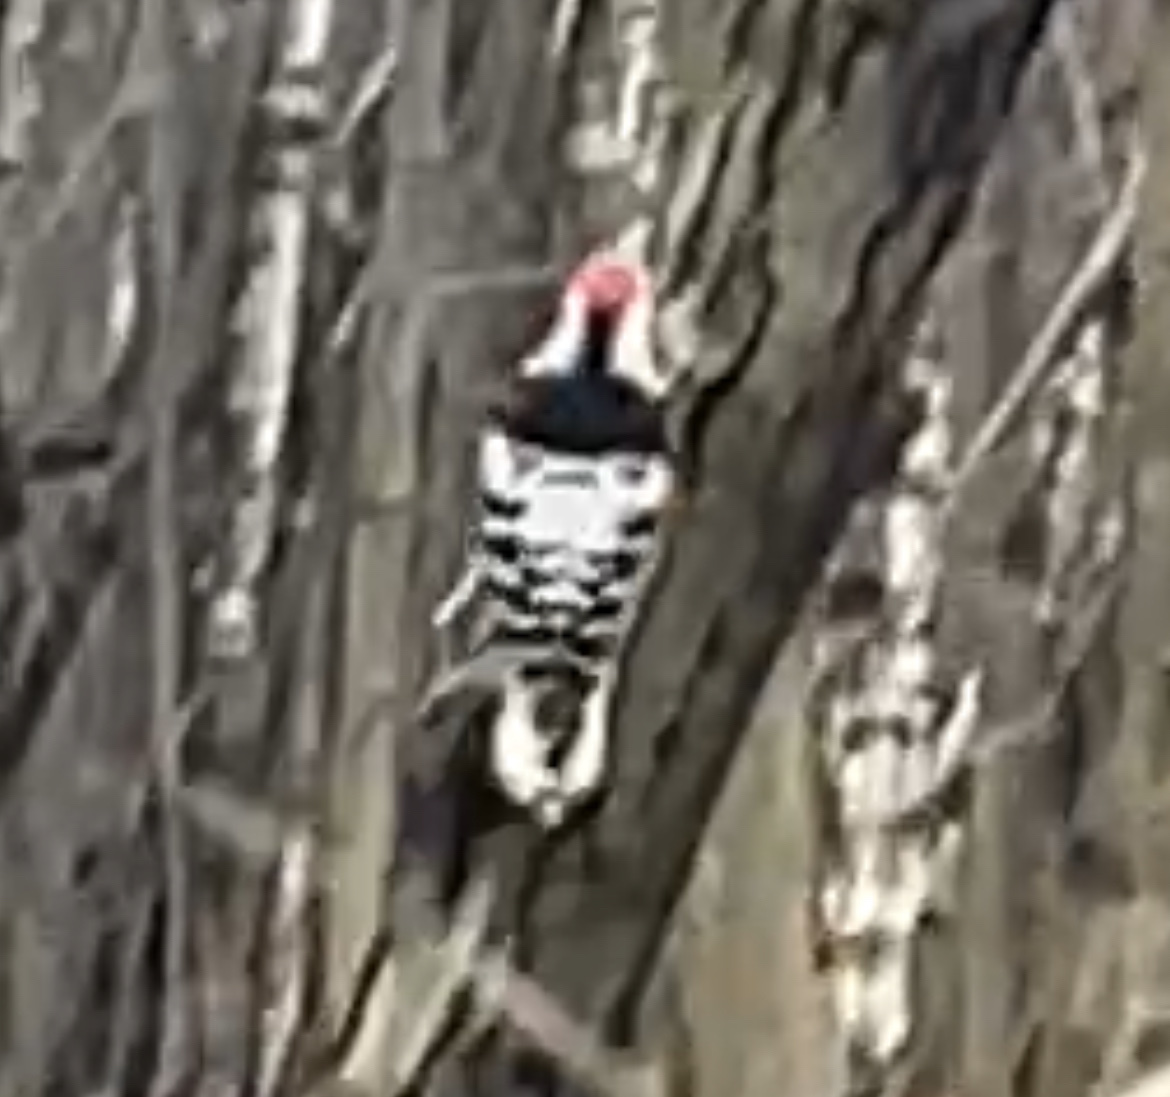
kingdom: Animalia
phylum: Chordata
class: Aves
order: Piciformes
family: Picidae
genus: Dendrocopos
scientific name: Dendrocopos leucotos
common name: White-backed woodpecker
